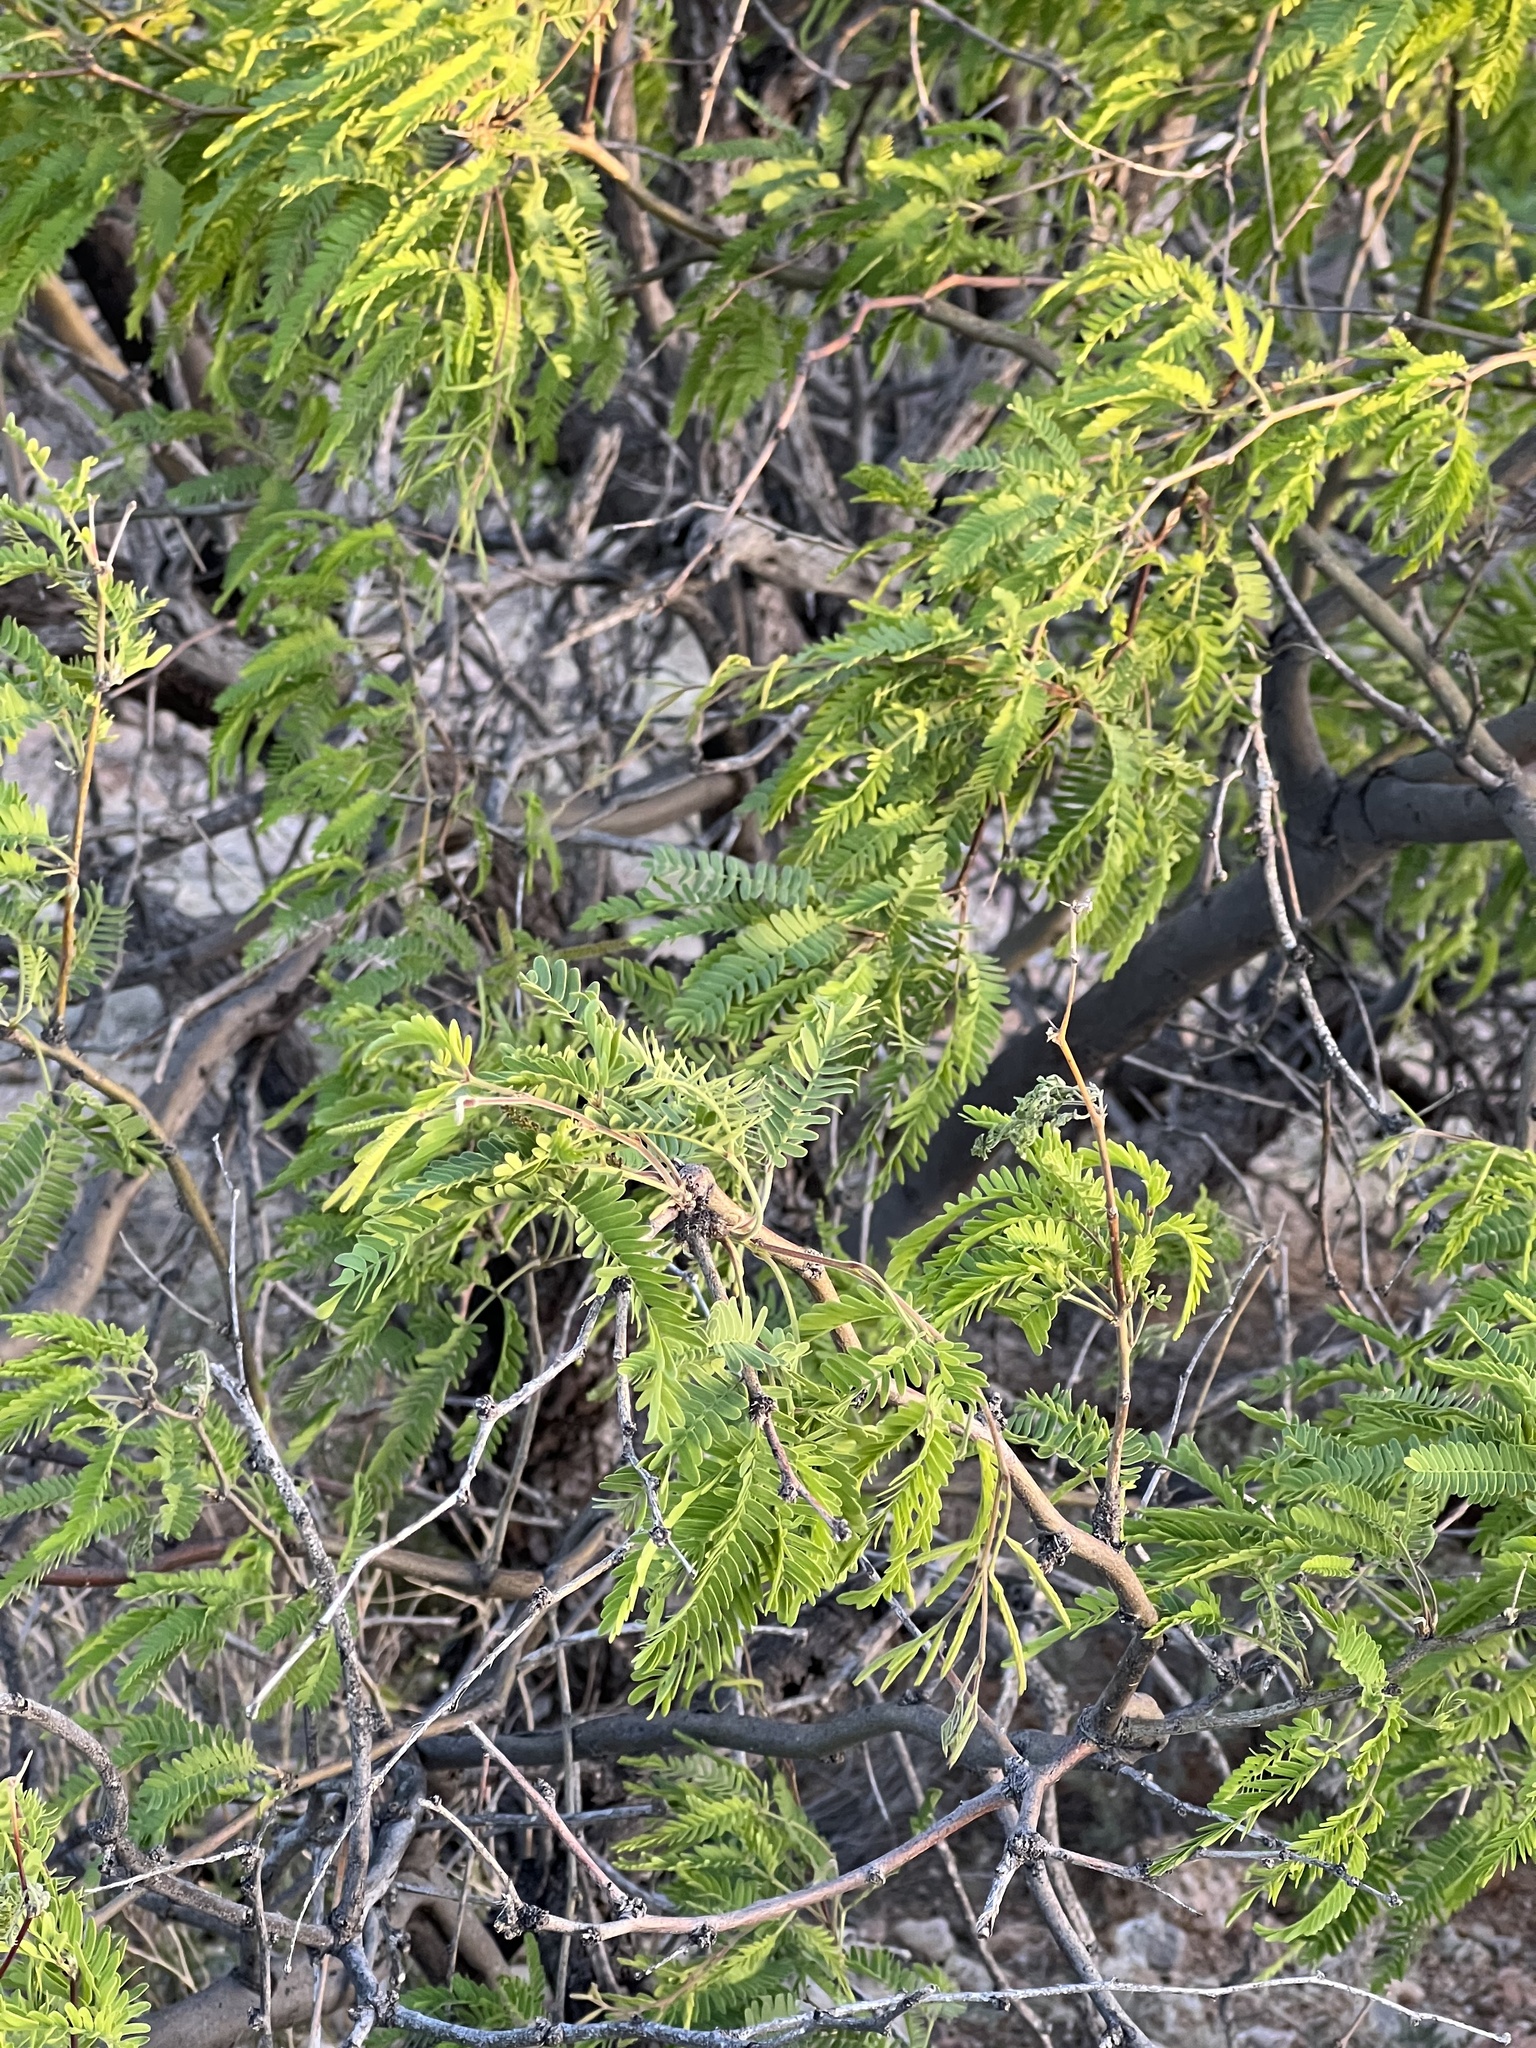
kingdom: Plantae
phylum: Tracheophyta
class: Magnoliopsida
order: Fabales
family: Fabaceae
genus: Prosopis
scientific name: Prosopis velutina
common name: Velvet mesquite
